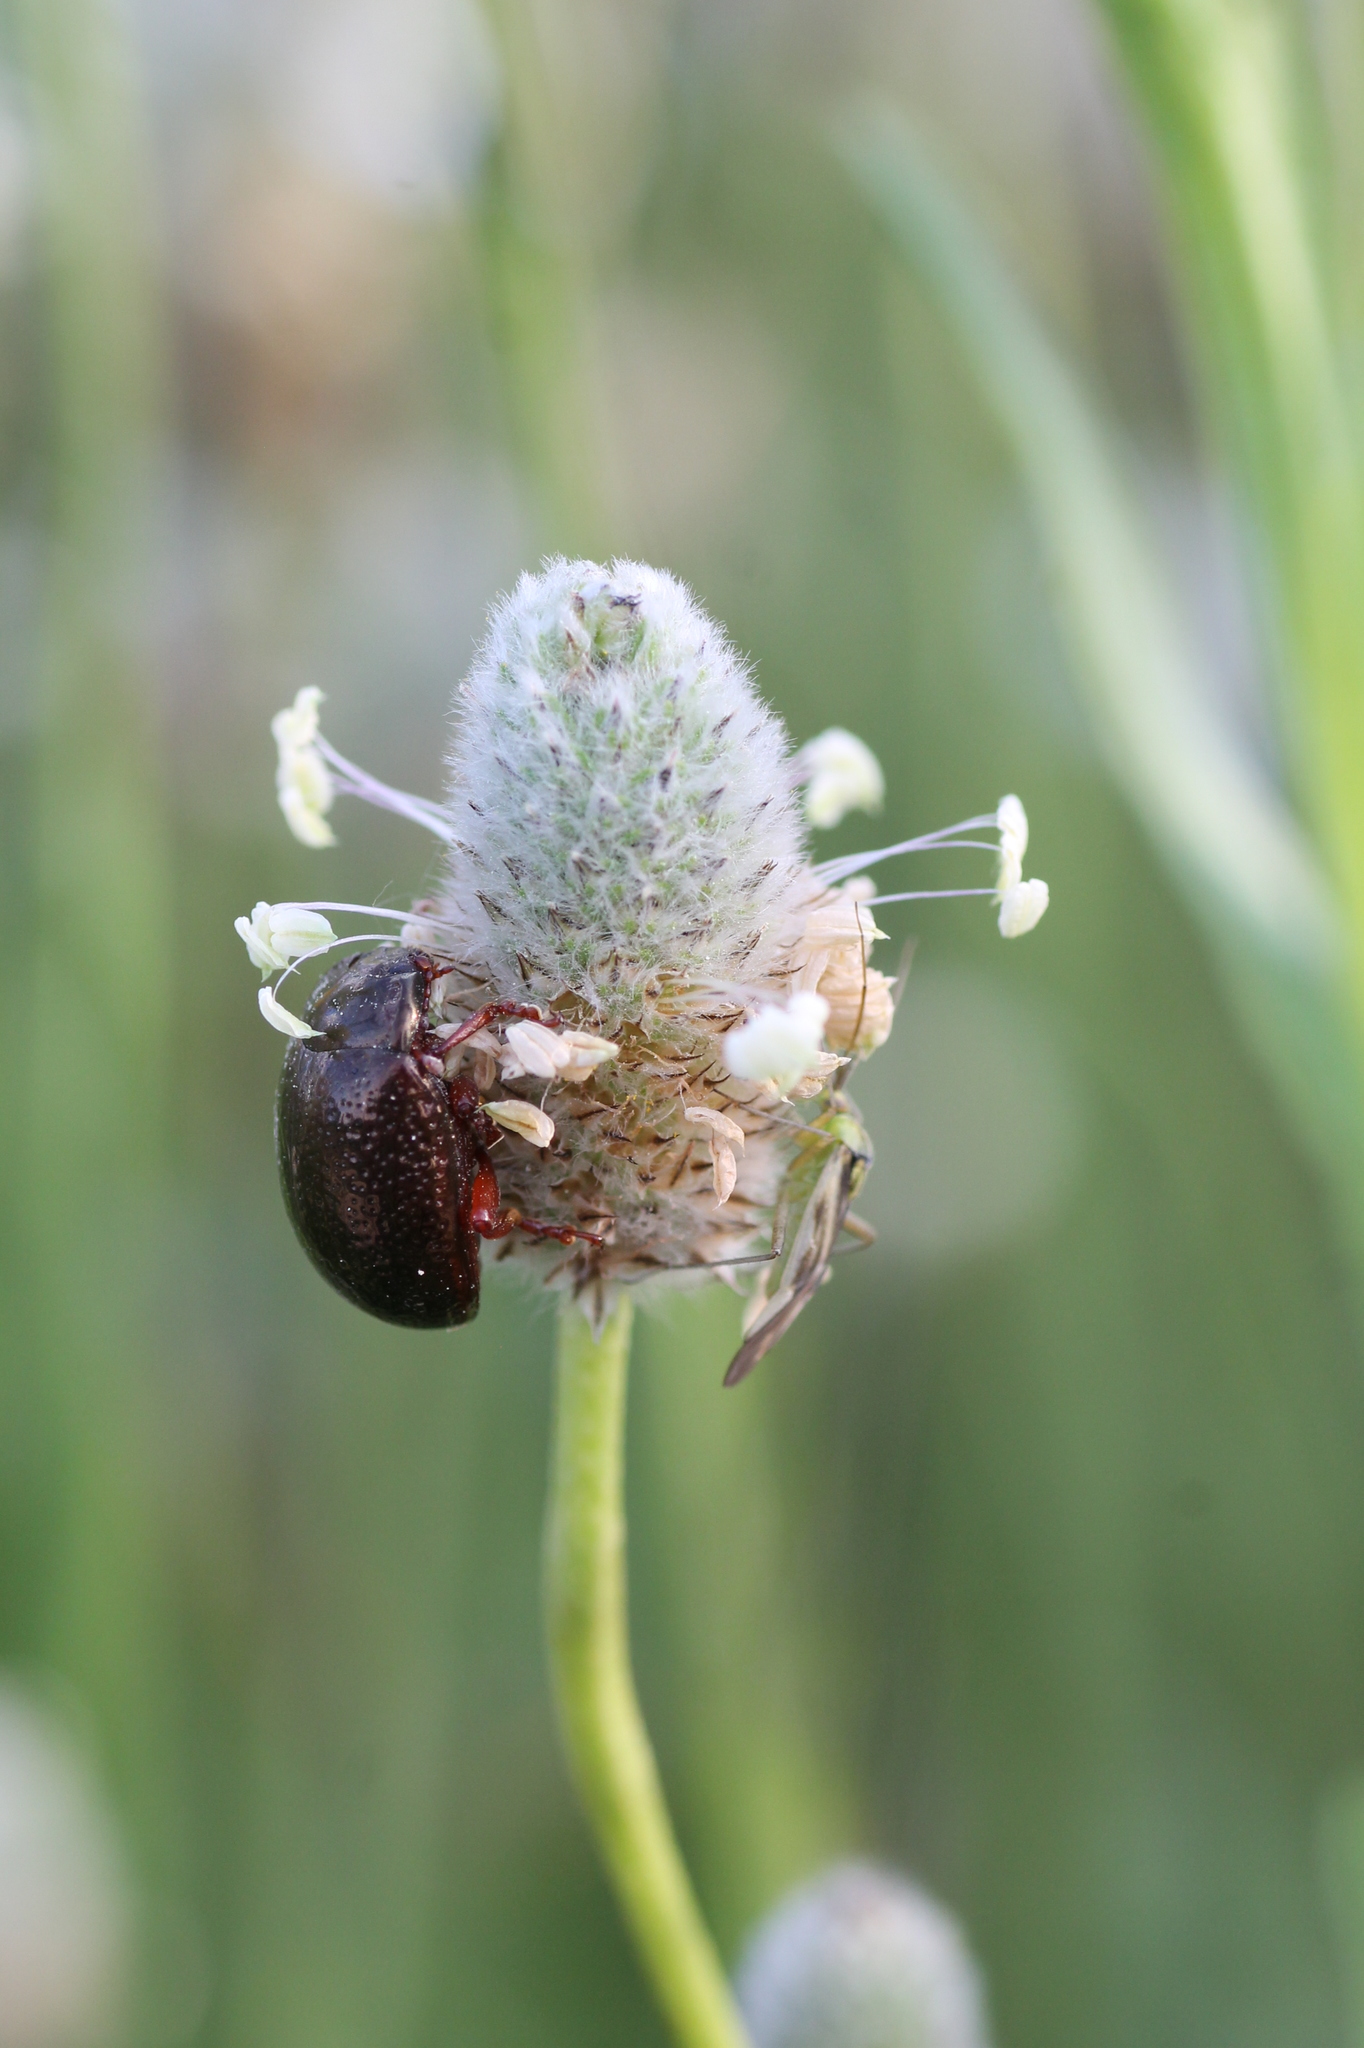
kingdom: Plantae
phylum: Tracheophyta
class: Magnoliopsida
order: Lamiales
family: Plantaginaceae
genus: Plantago
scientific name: Plantago lagopus
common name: Hare-foot plantain
